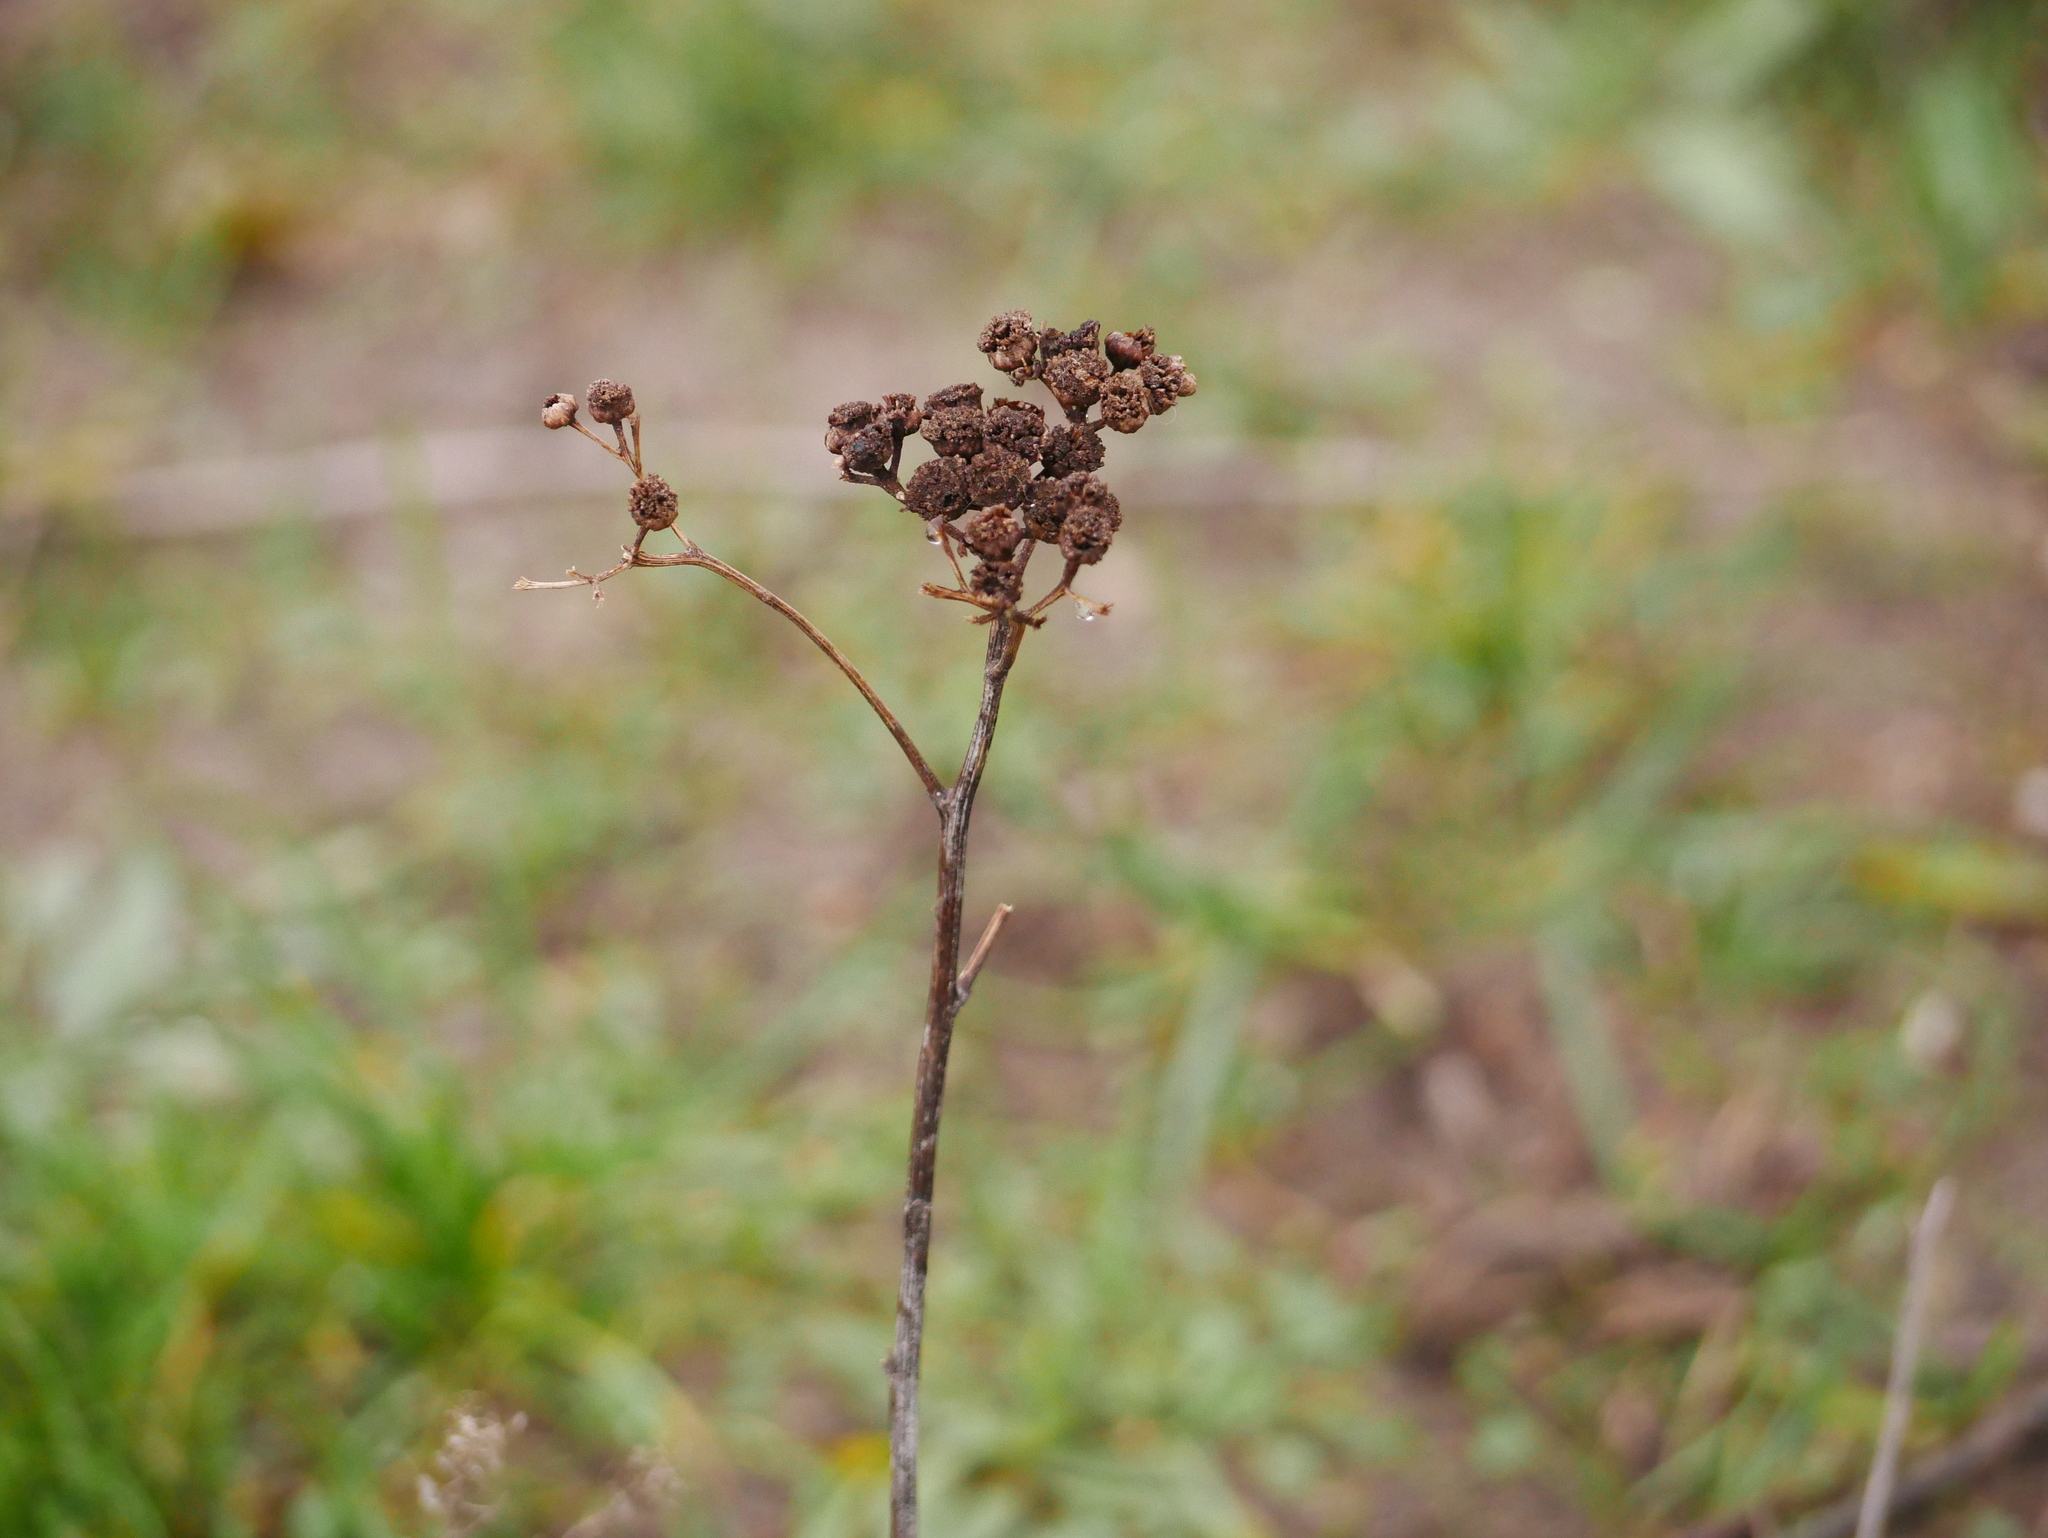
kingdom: Plantae
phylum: Tracheophyta
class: Magnoliopsida
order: Asterales
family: Asteraceae
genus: Tanacetum
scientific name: Tanacetum vulgare
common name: Common tansy
